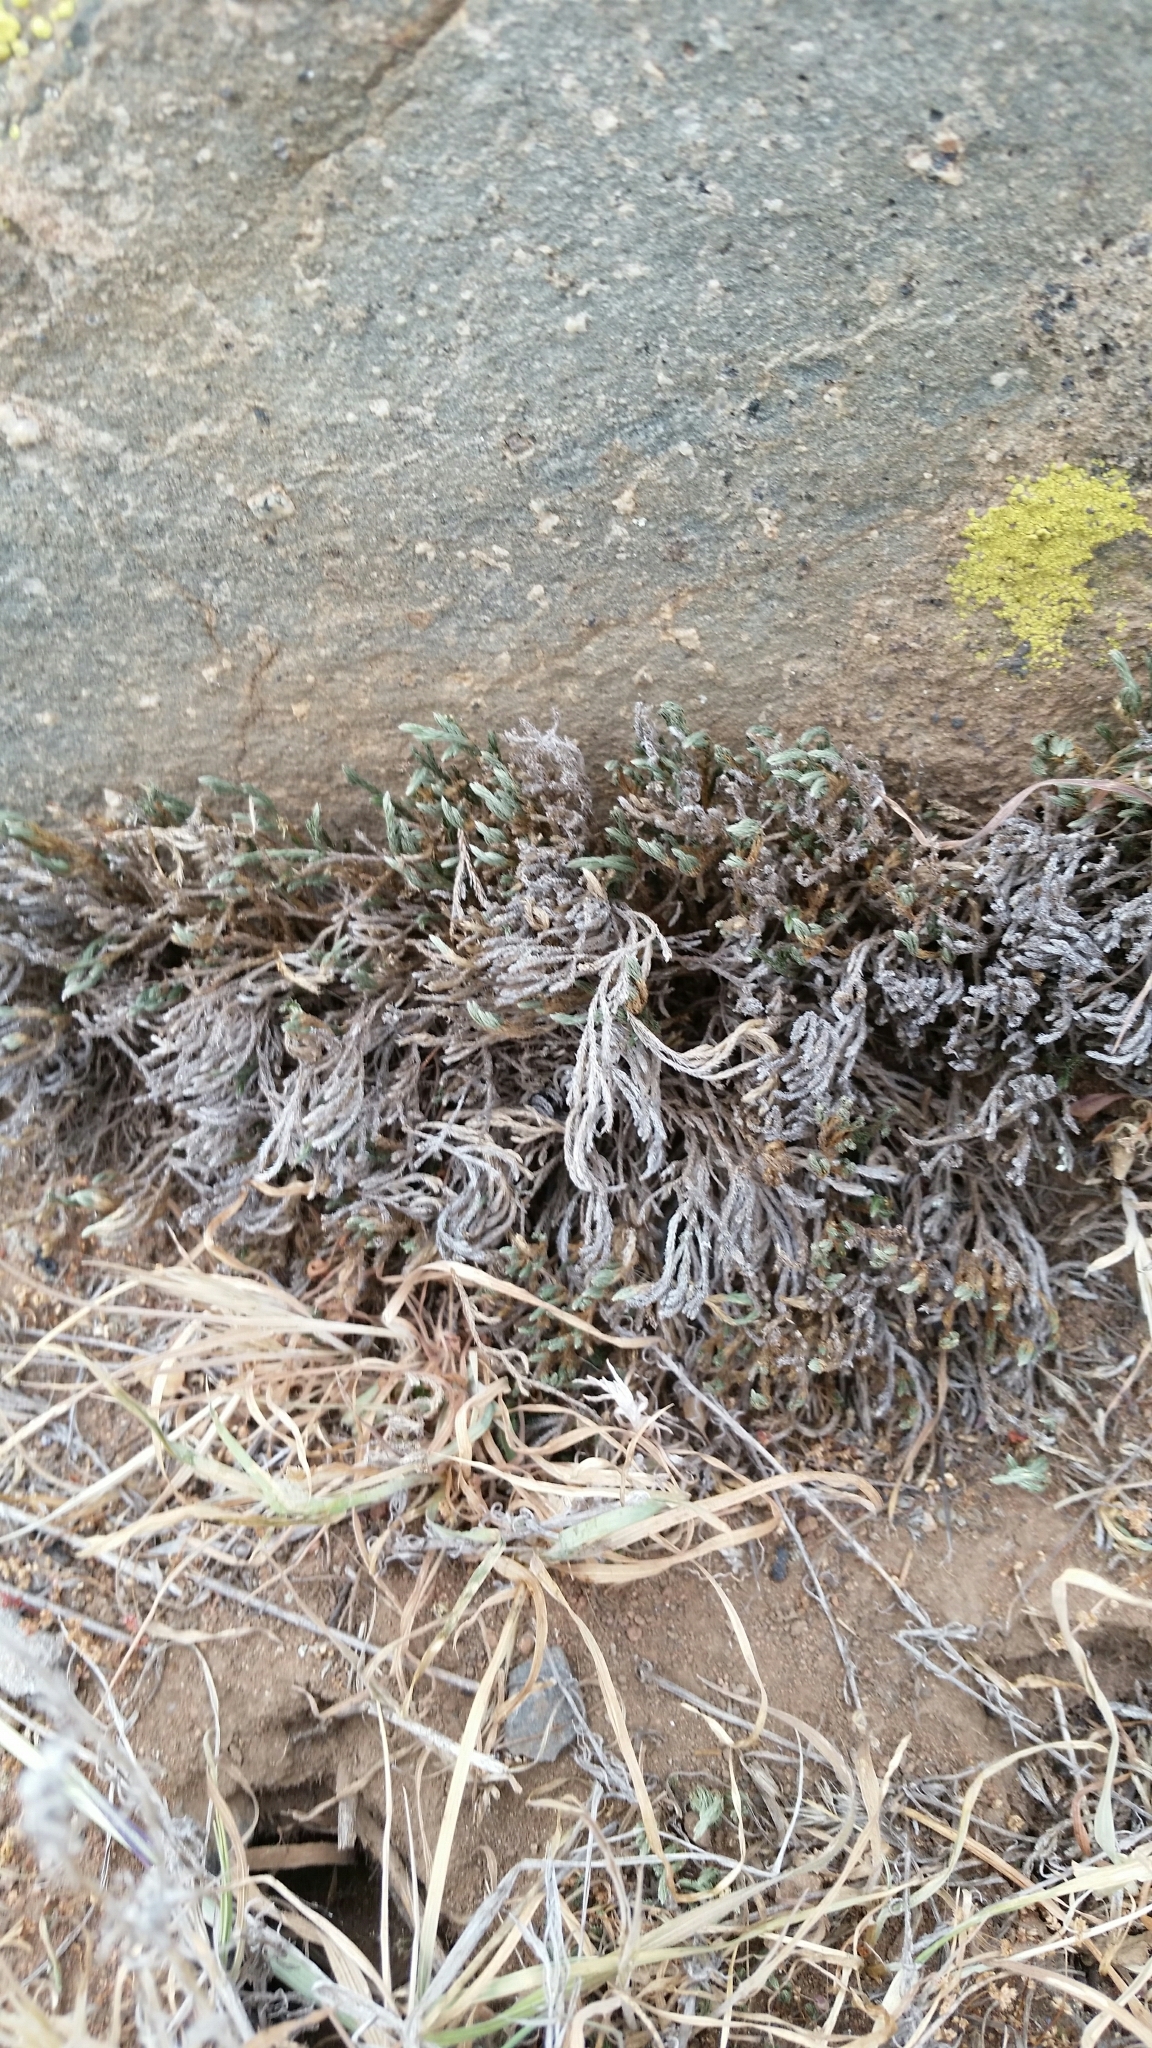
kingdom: Plantae
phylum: Tracheophyta
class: Lycopodiopsida
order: Selaginellales
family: Selaginellaceae
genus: Selaginella
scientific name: Selaginella bigelovii
